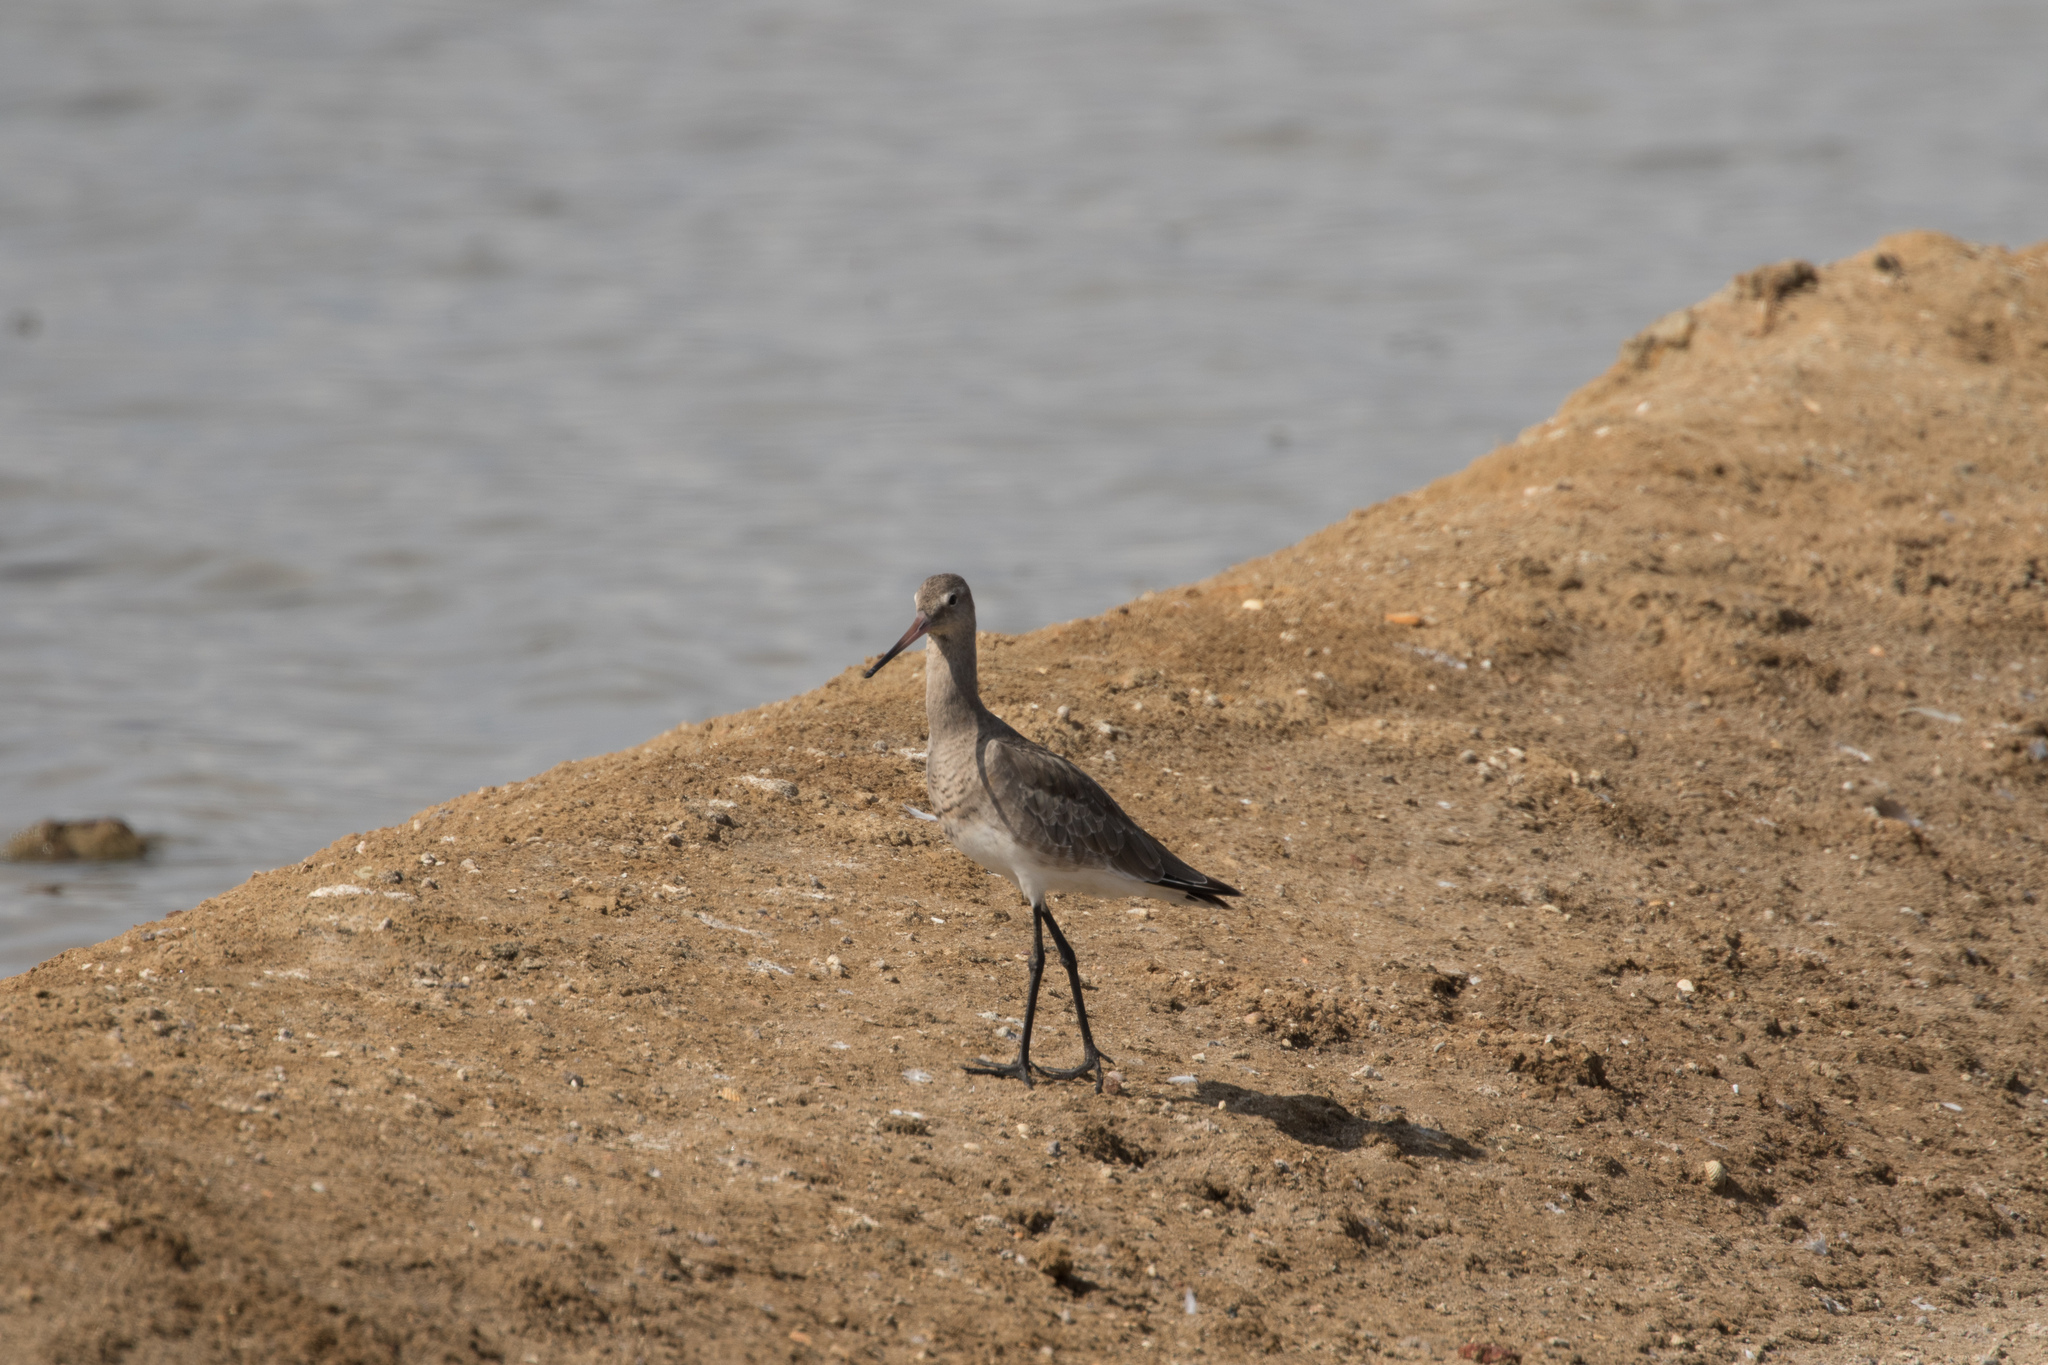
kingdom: Animalia
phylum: Chordata
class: Aves
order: Charadriiformes
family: Scolopacidae
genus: Limosa
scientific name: Limosa limosa
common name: Black-tailed godwit
